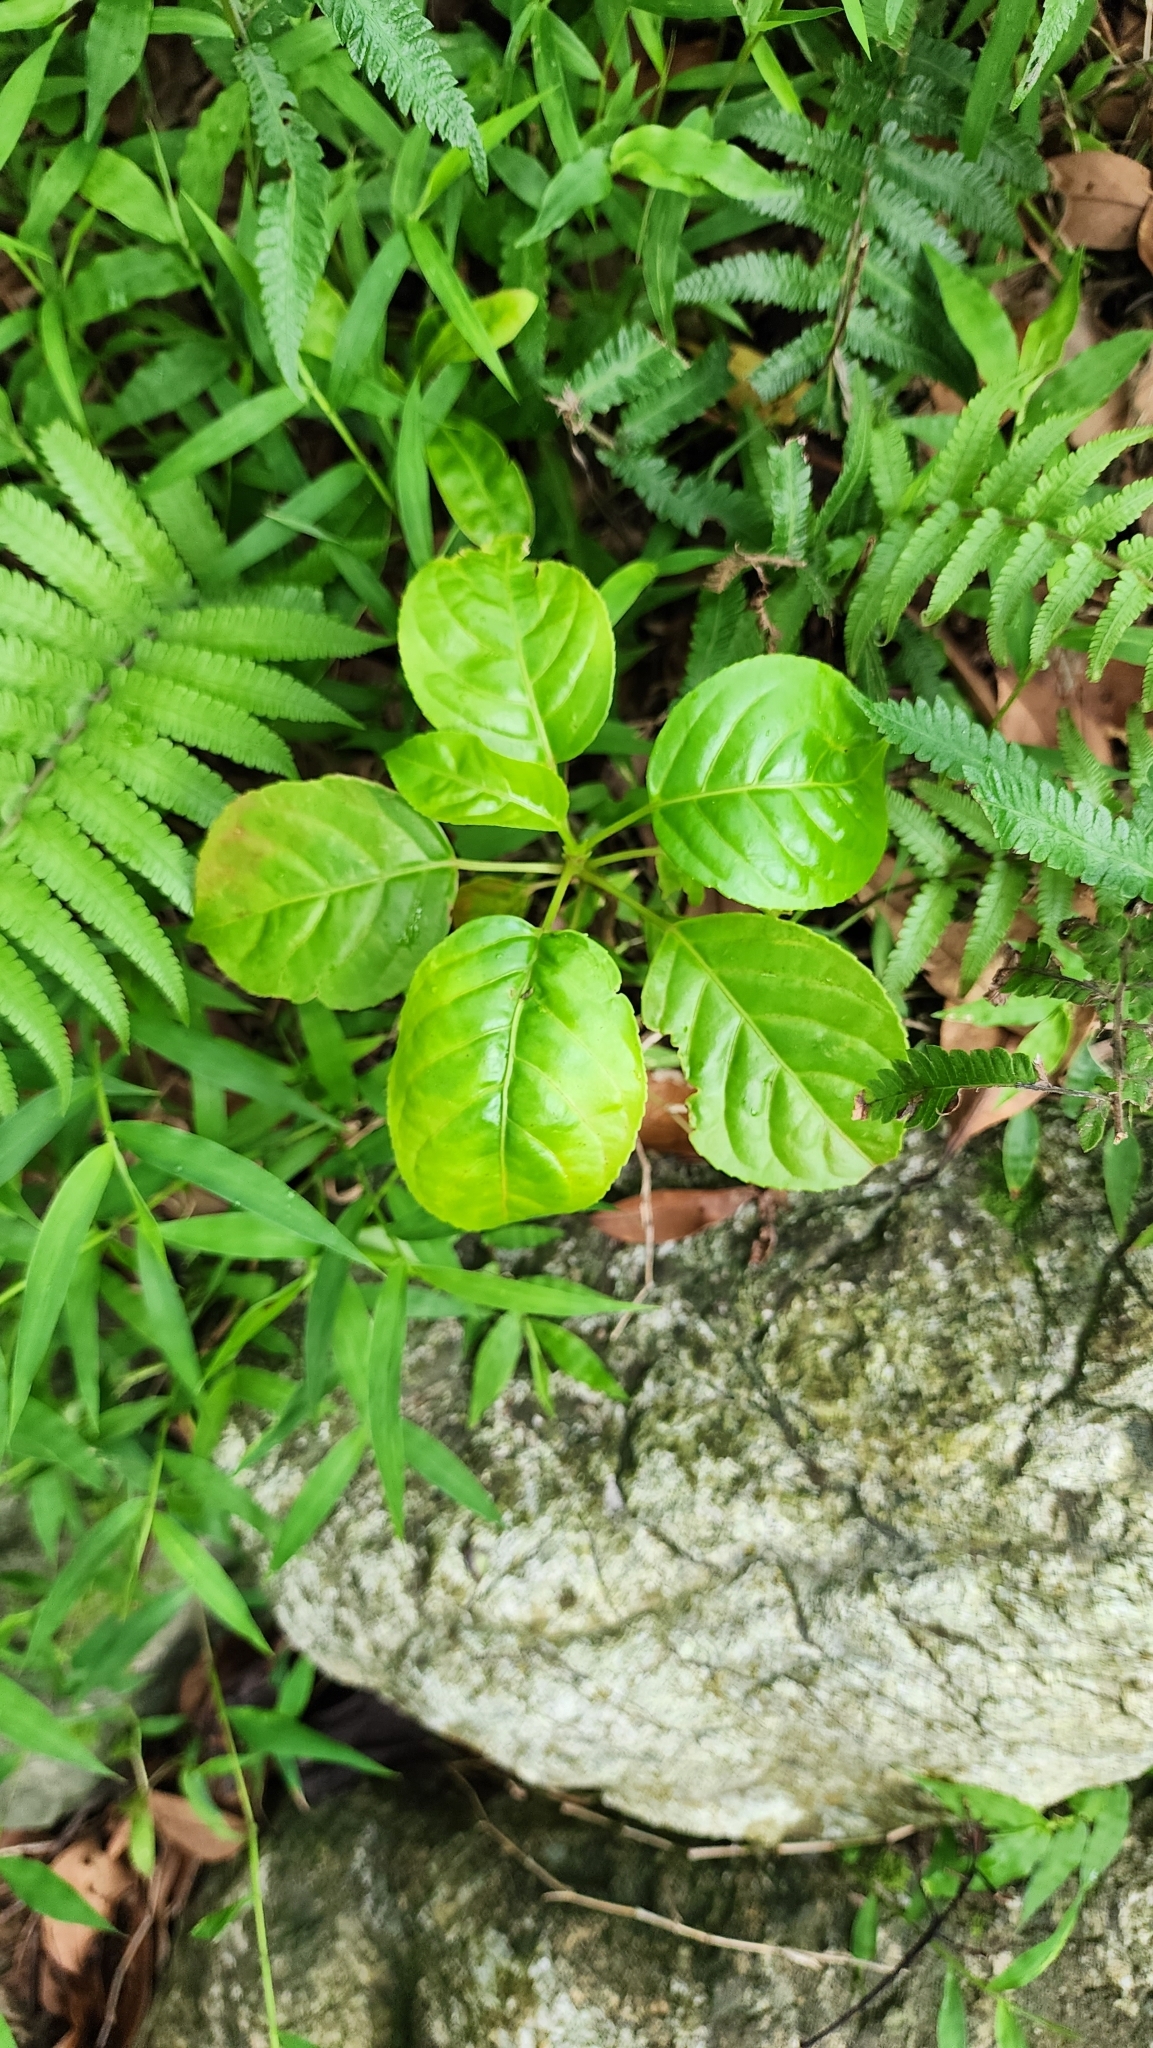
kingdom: Plantae
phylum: Tracheophyta
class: Magnoliopsida
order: Malpighiales
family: Phyllanthaceae
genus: Bischofia
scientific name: Bischofia javanica
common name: Javanese bishopwood
